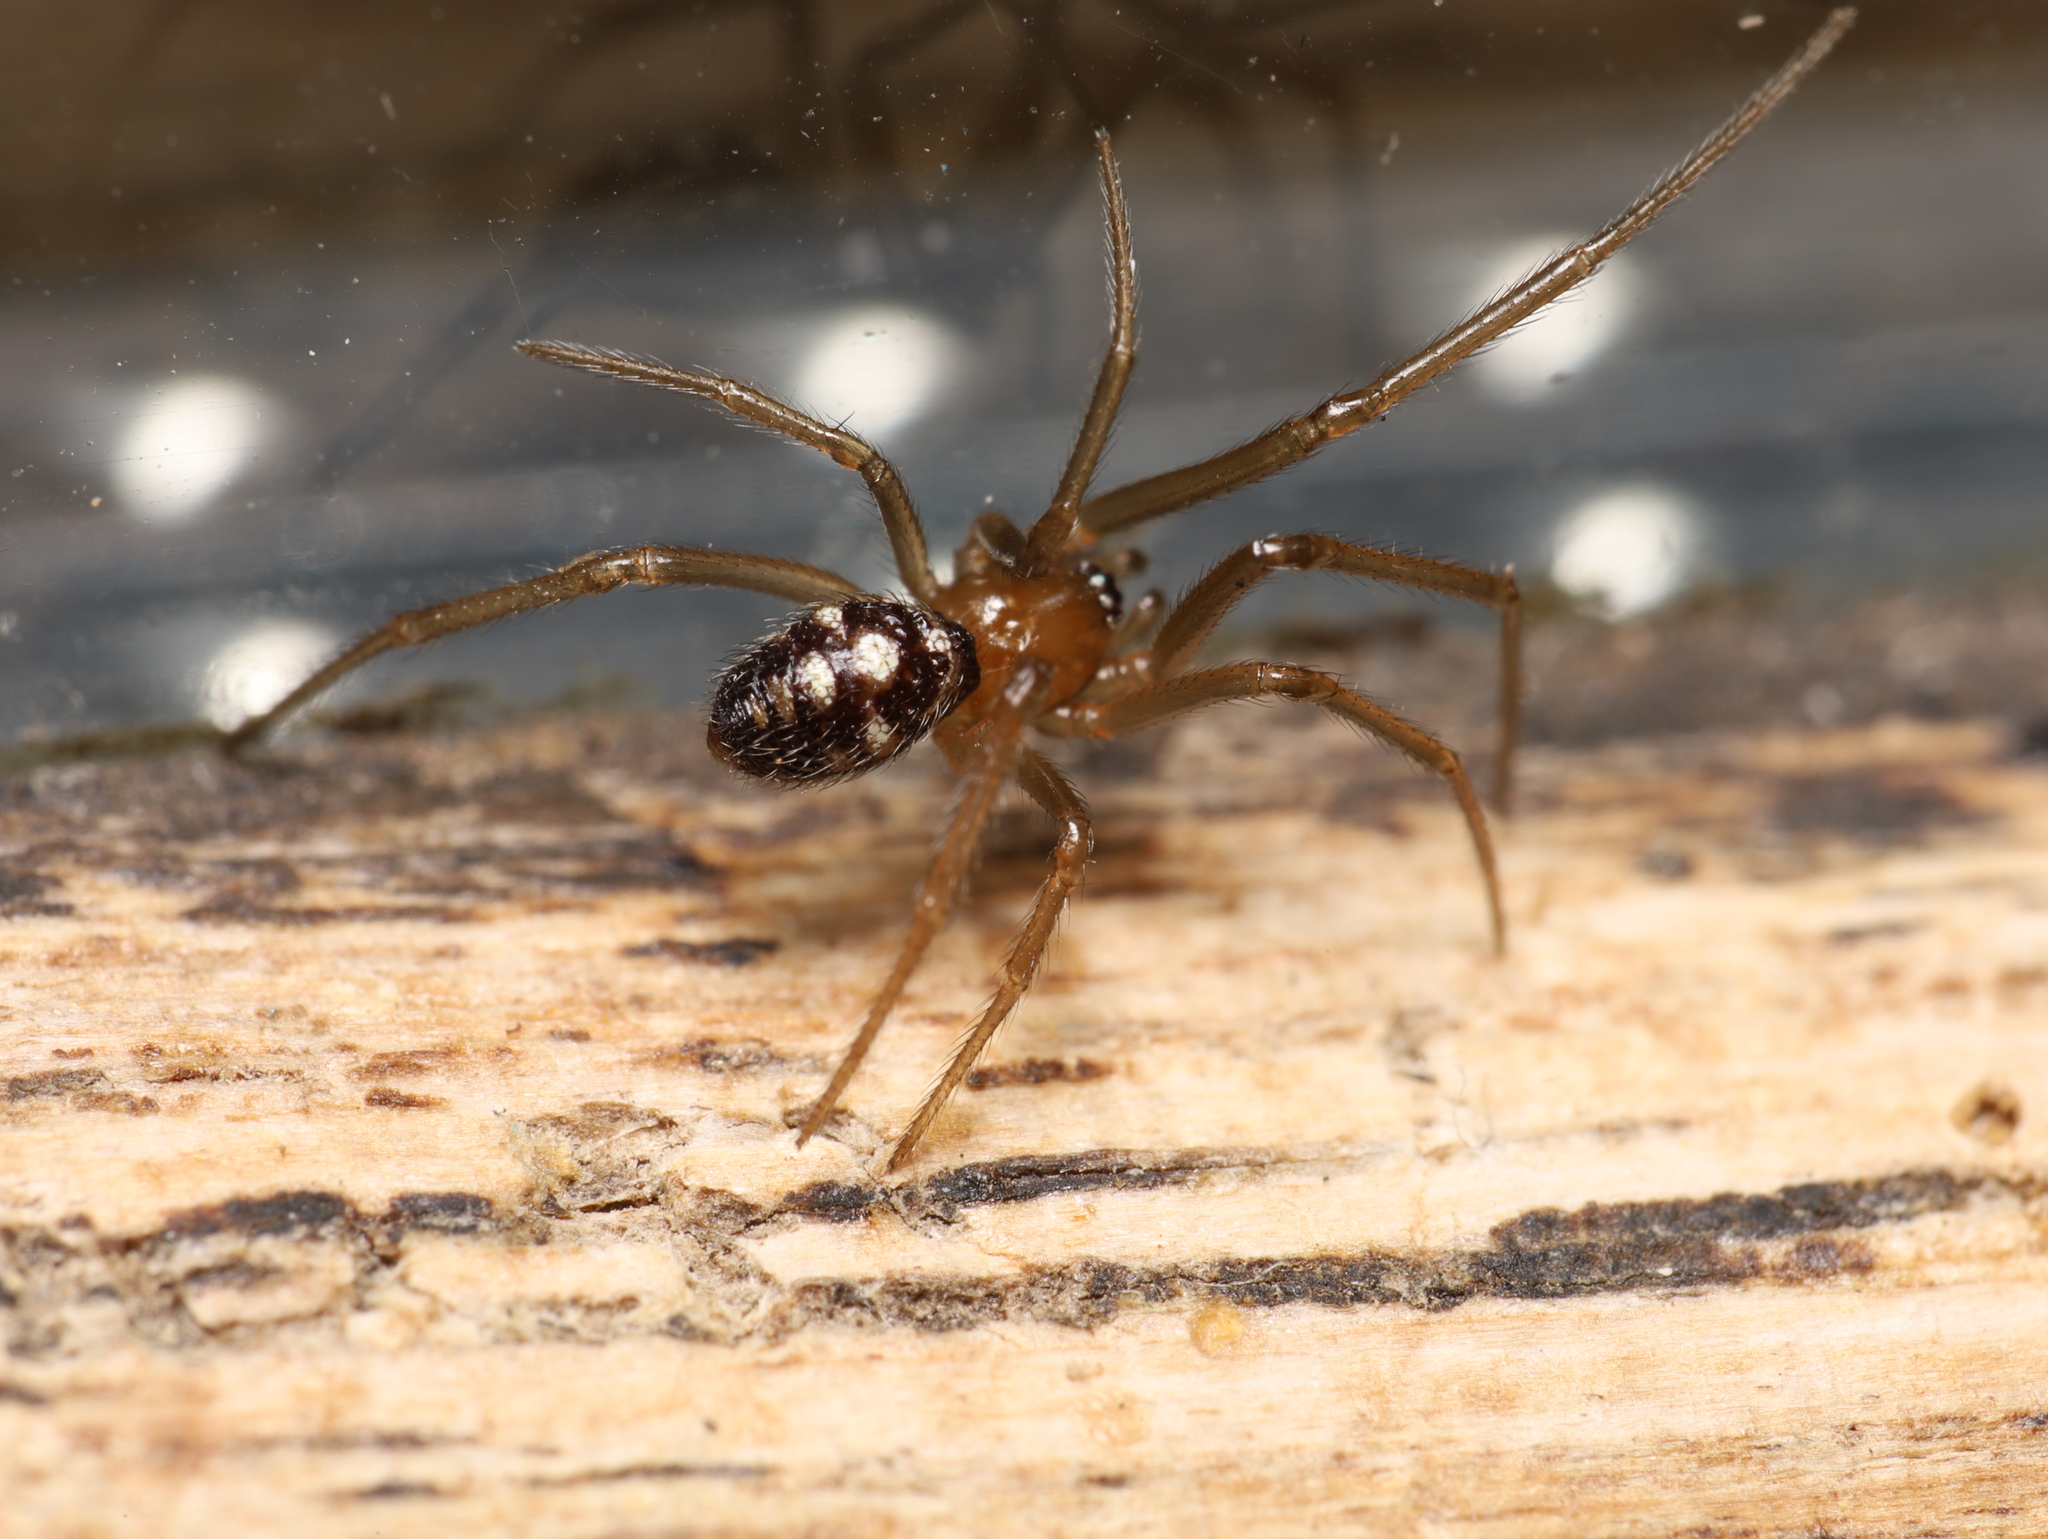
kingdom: Animalia
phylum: Arthropoda
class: Arachnida
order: Araneae
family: Theridiidae
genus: Steatoda
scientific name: Steatoda grossa
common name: False black widow
